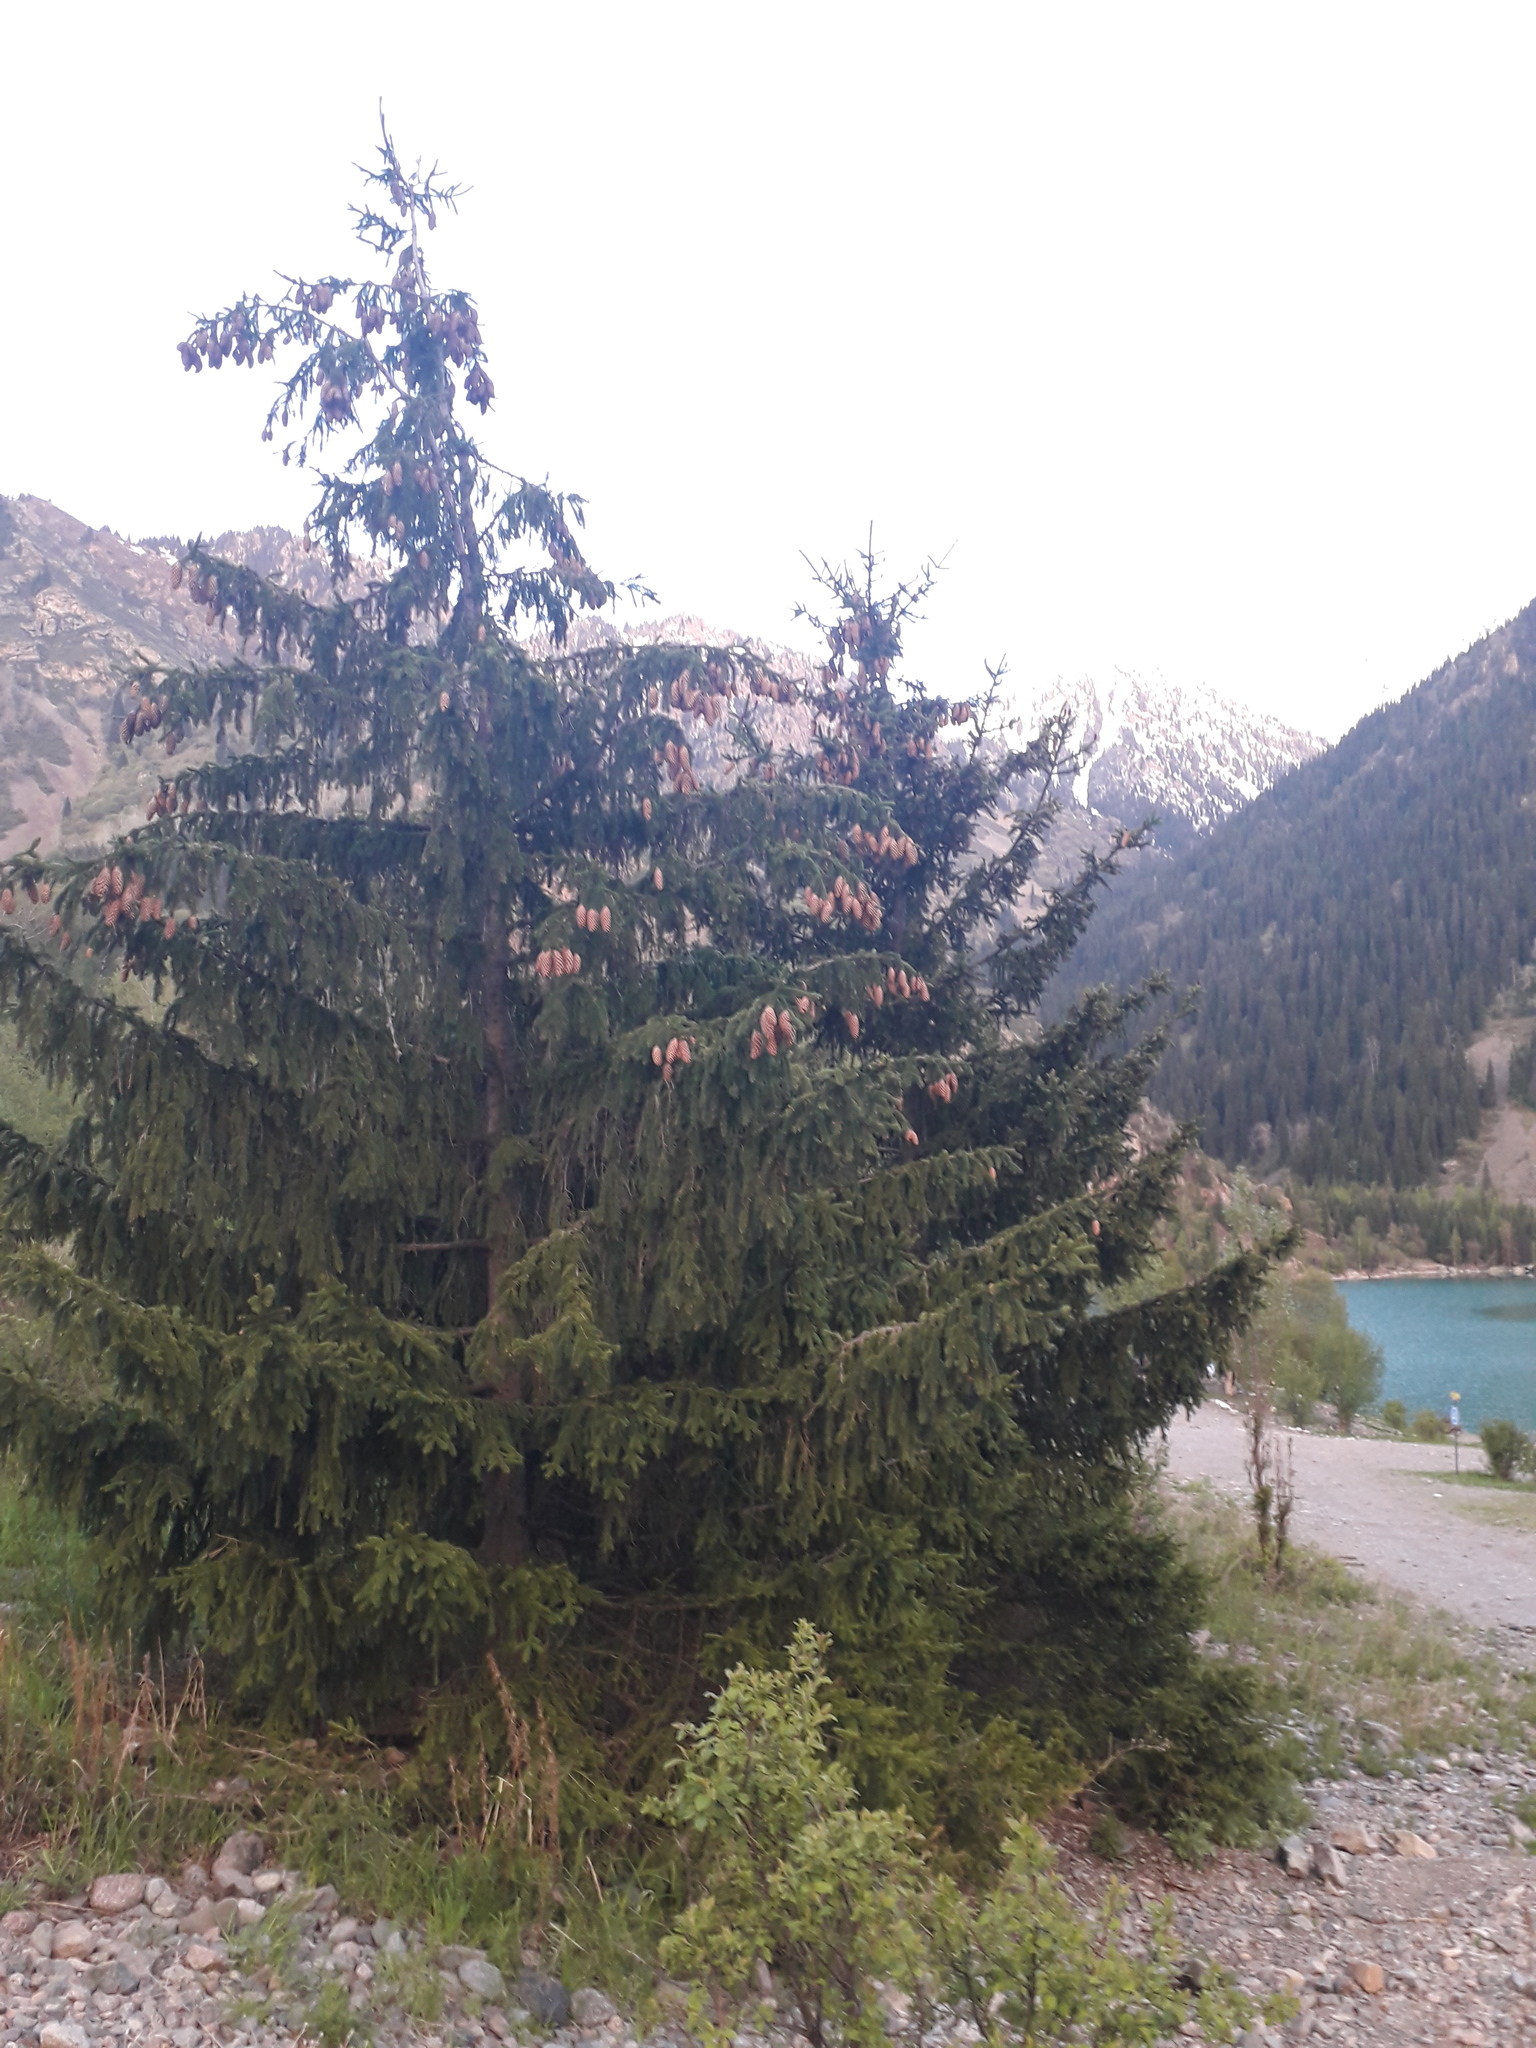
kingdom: Plantae
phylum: Tracheophyta
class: Pinopsida
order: Pinales
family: Pinaceae
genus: Picea
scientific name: Picea schrenkiana
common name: Asian spruce
